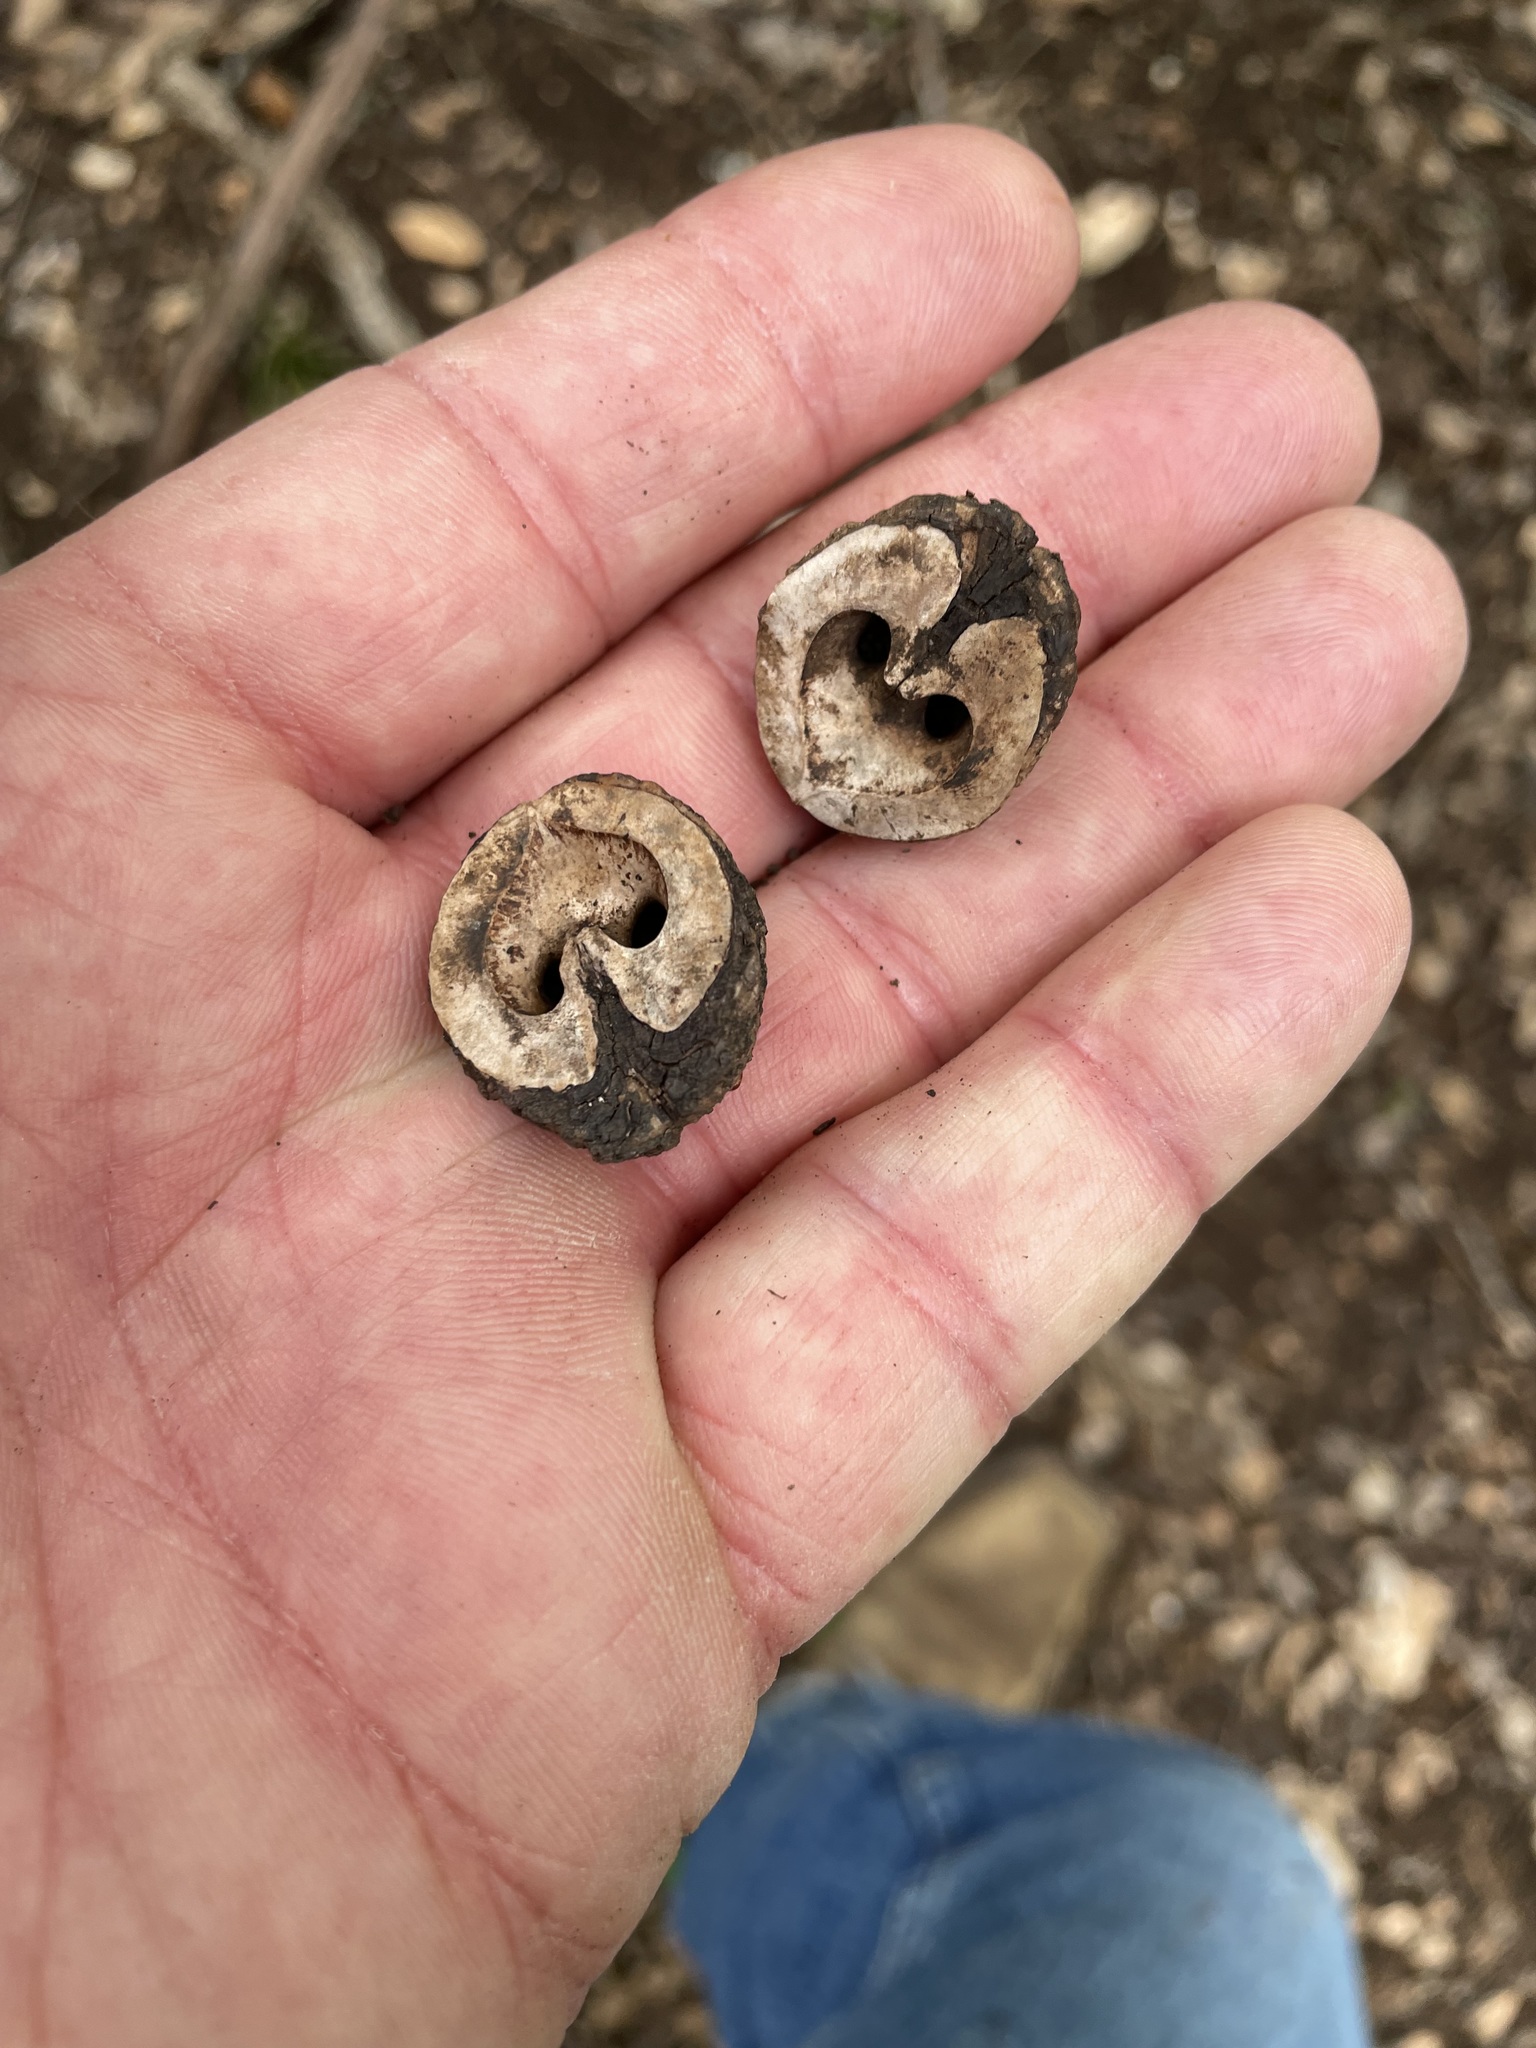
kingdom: Plantae
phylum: Tracheophyta
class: Magnoliopsida
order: Fagales
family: Juglandaceae
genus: Juglans
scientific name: Juglans major
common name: Arizona walnut
